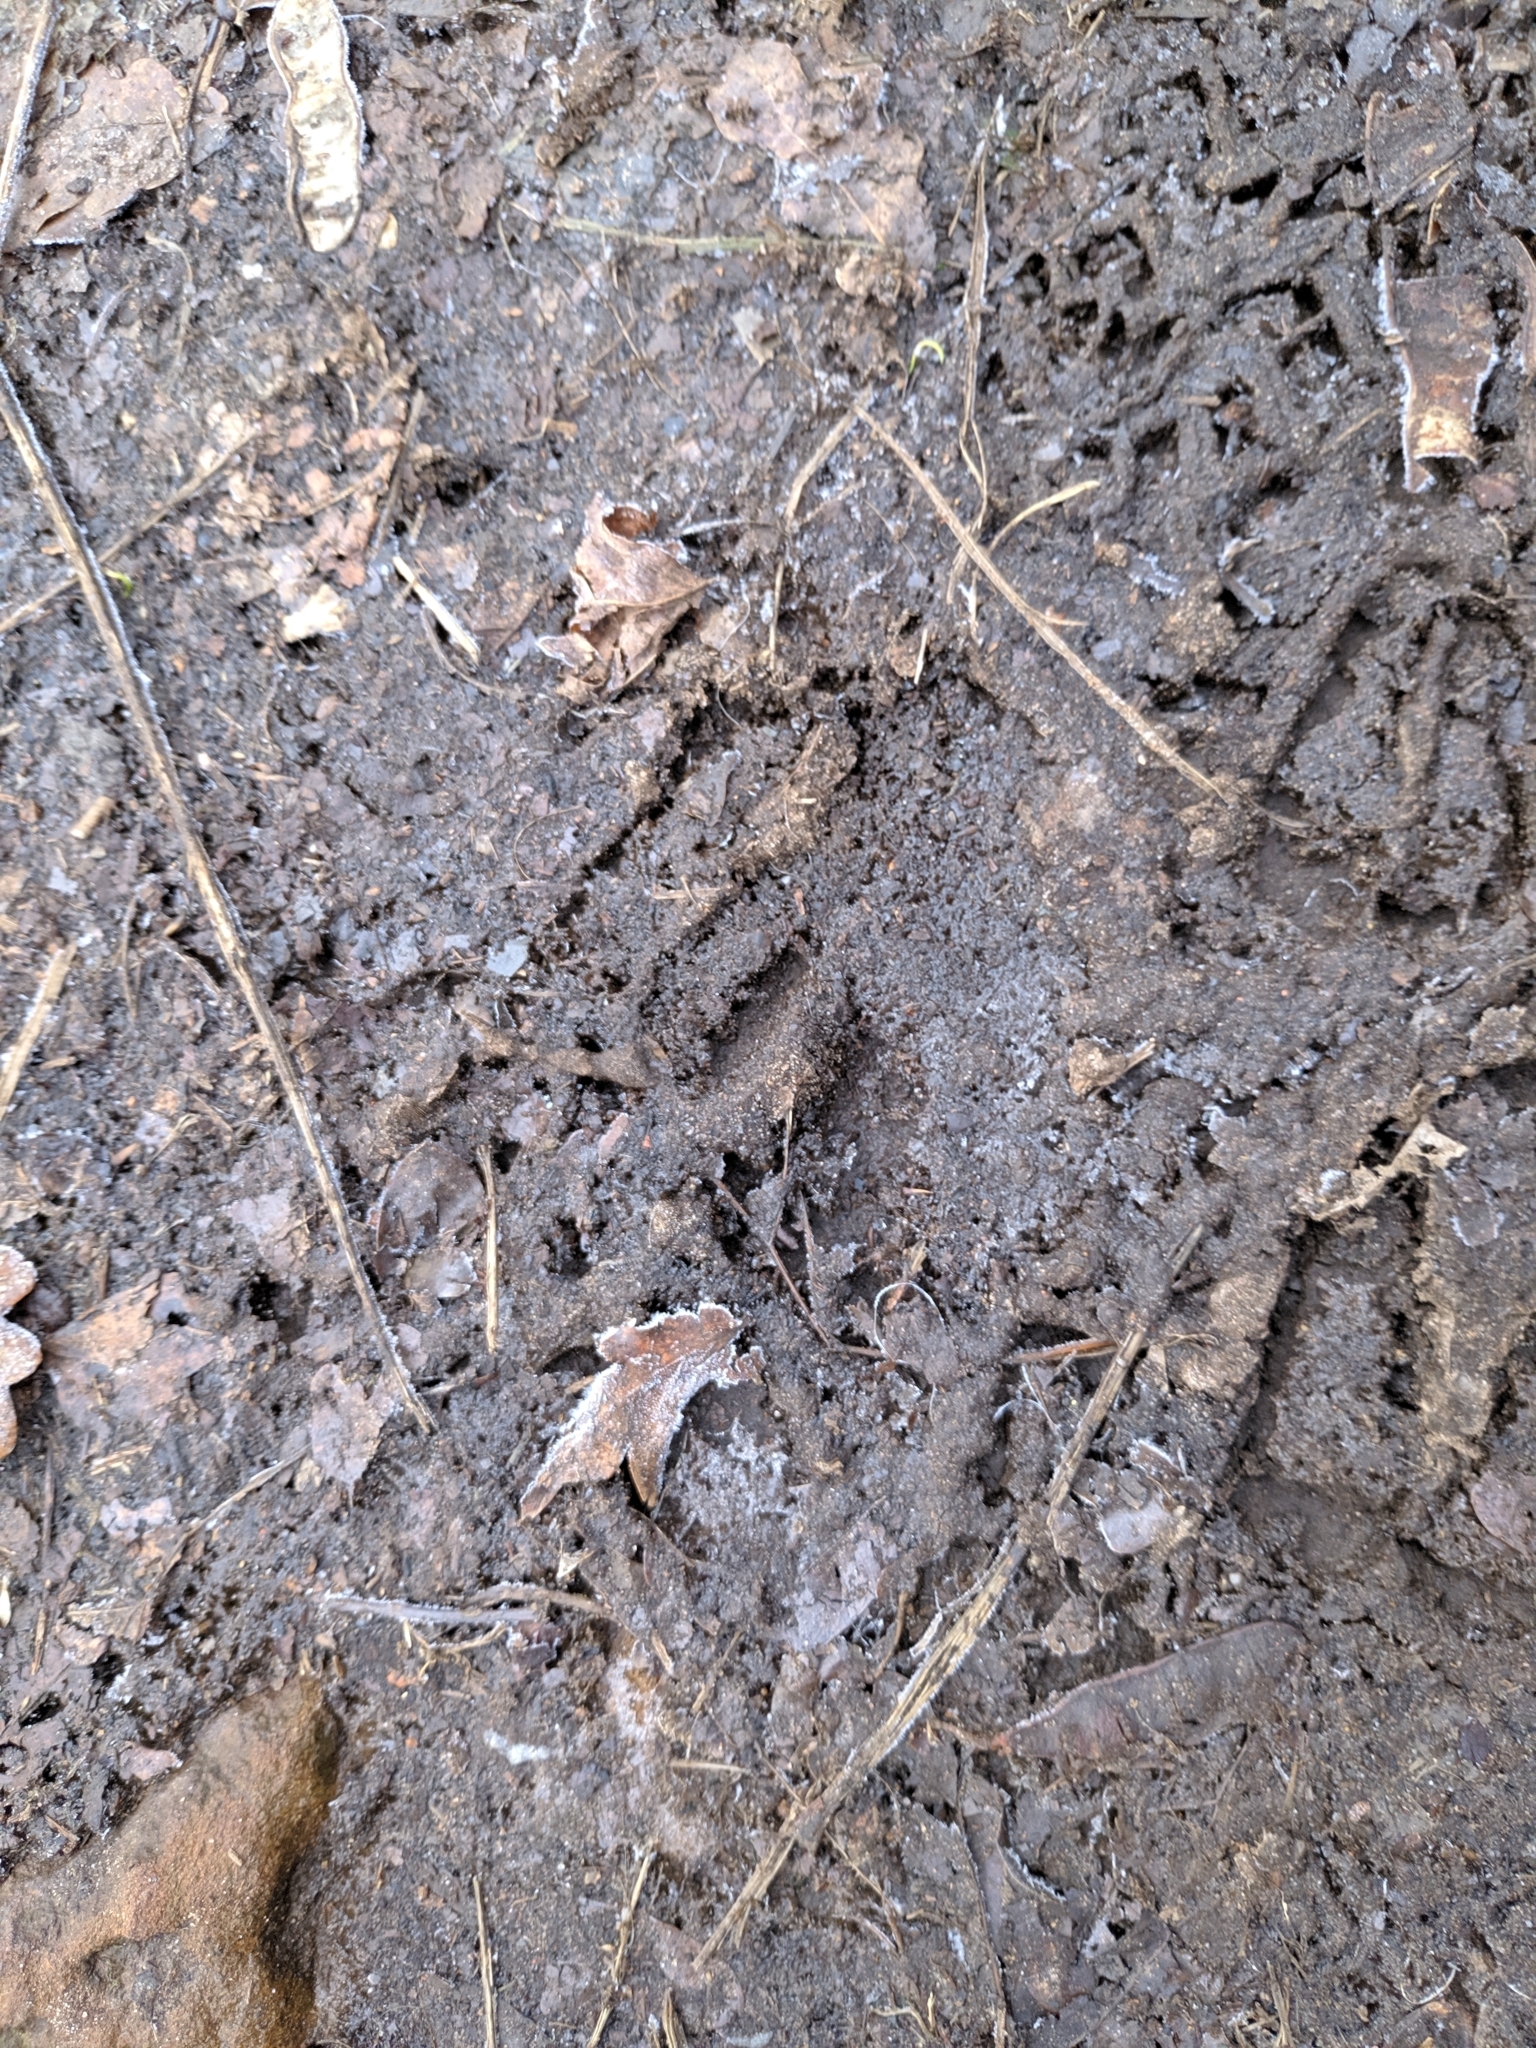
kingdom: Animalia
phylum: Chordata
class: Mammalia
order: Artiodactyla
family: Bovidae
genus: Ovis
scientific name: Ovis aries
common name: Domestic sheep
